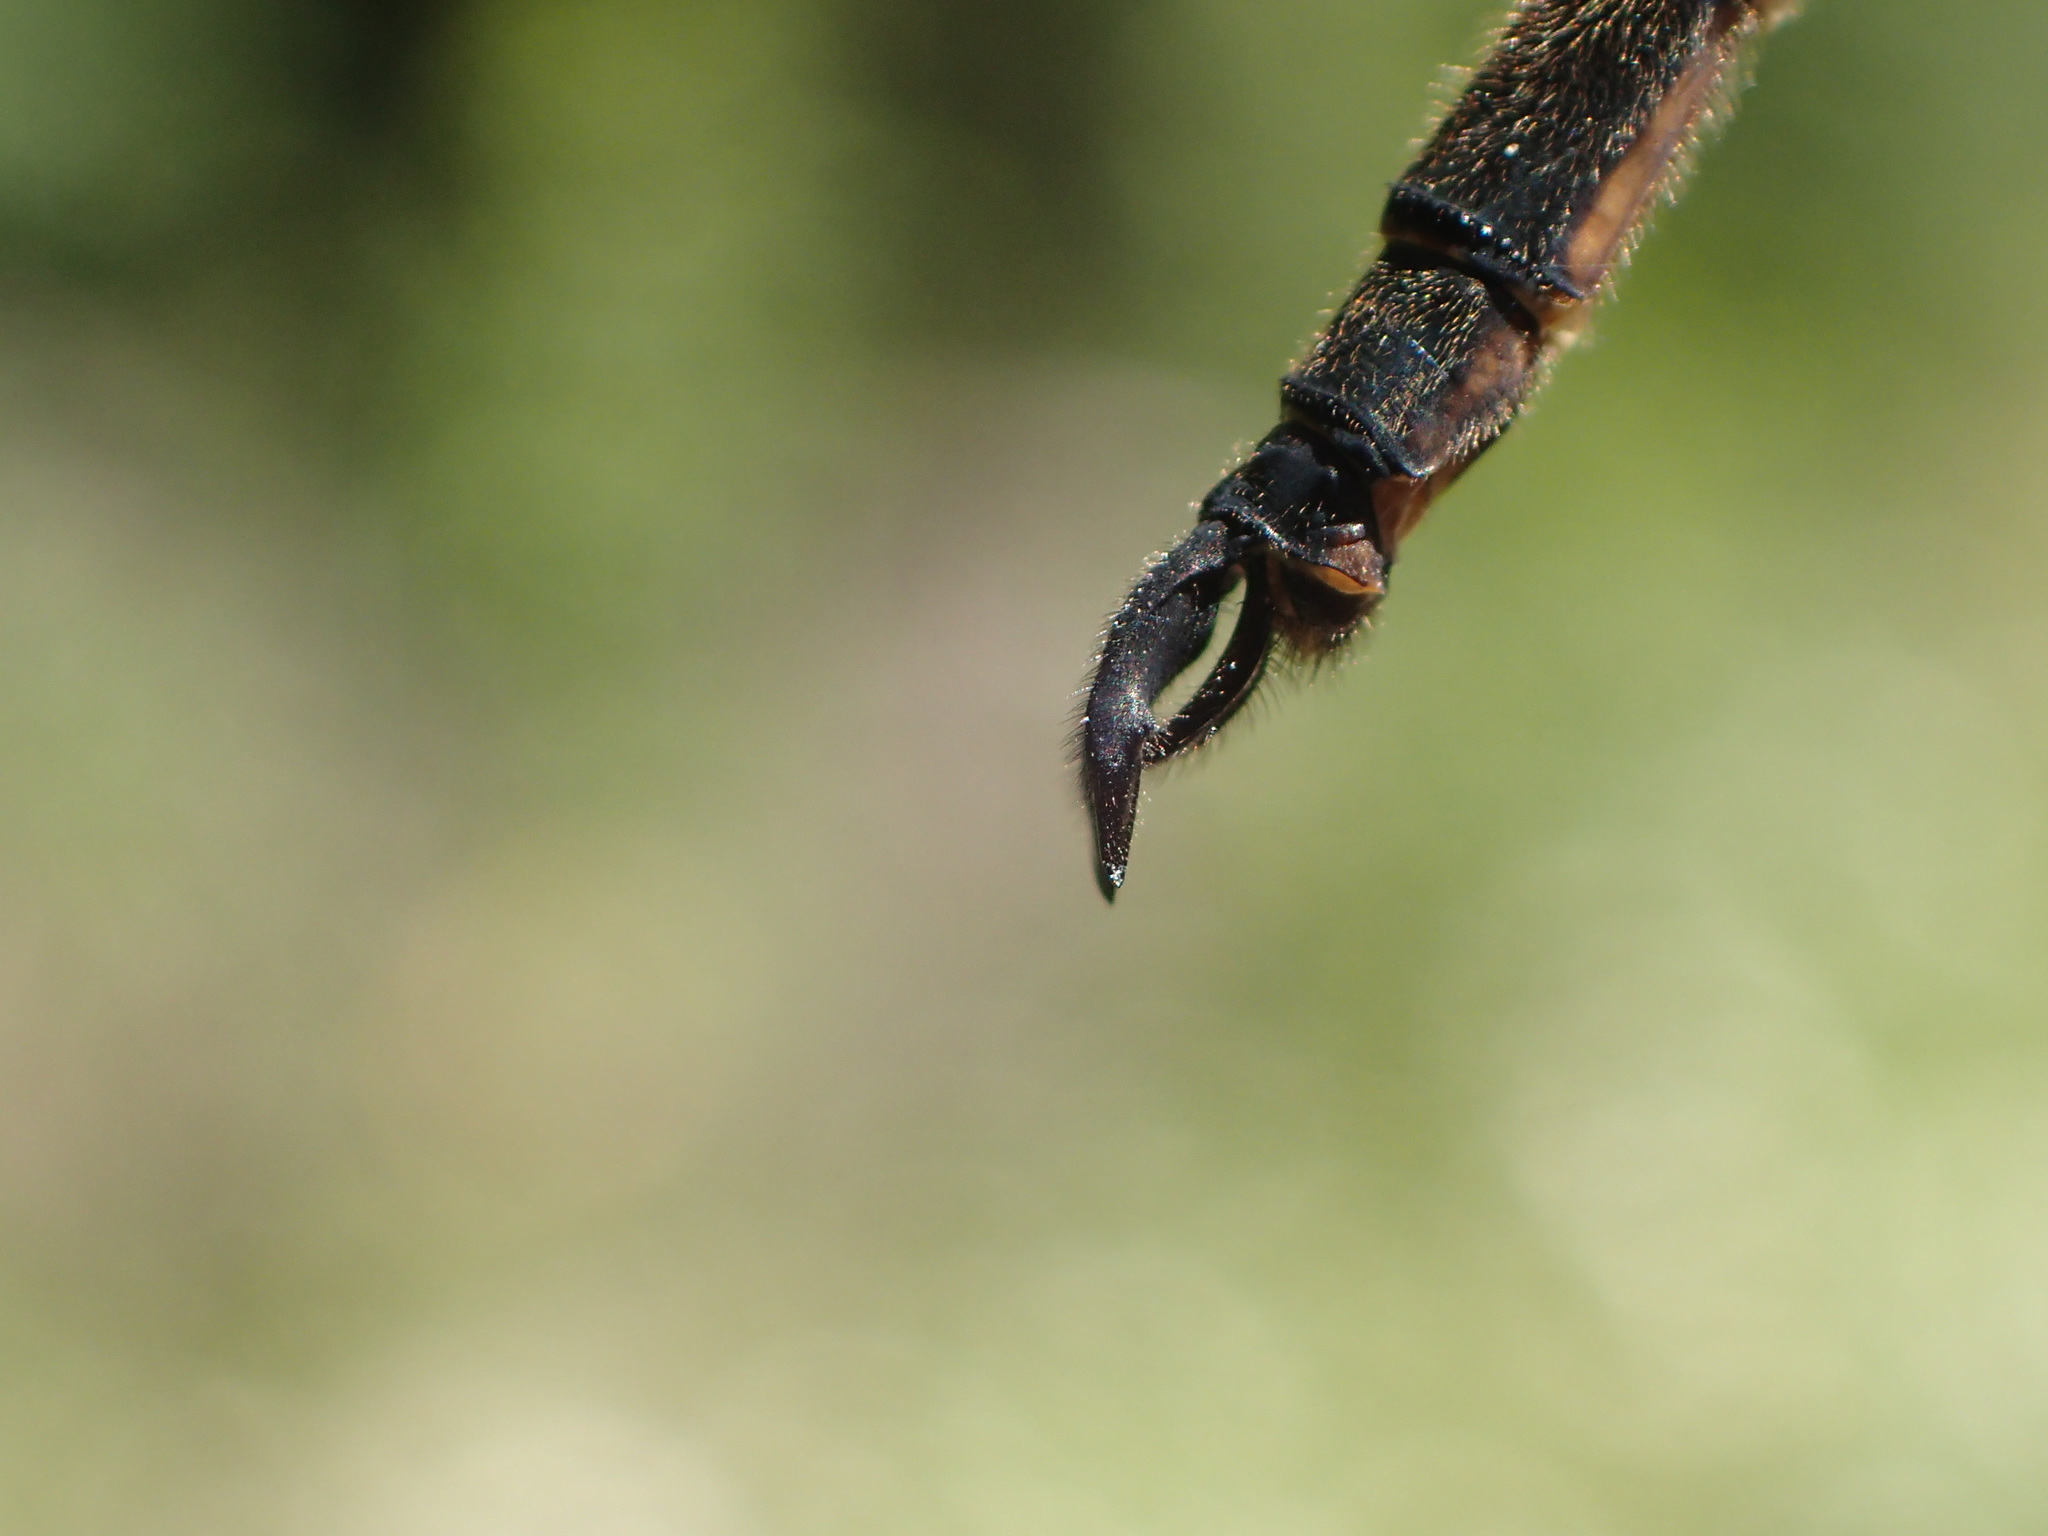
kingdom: Animalia
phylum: Arthropoda
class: Insecta
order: Odonata
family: Corduliidae
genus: Somatochlora
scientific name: Somatochlora forcipata
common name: Forcipate emerald
